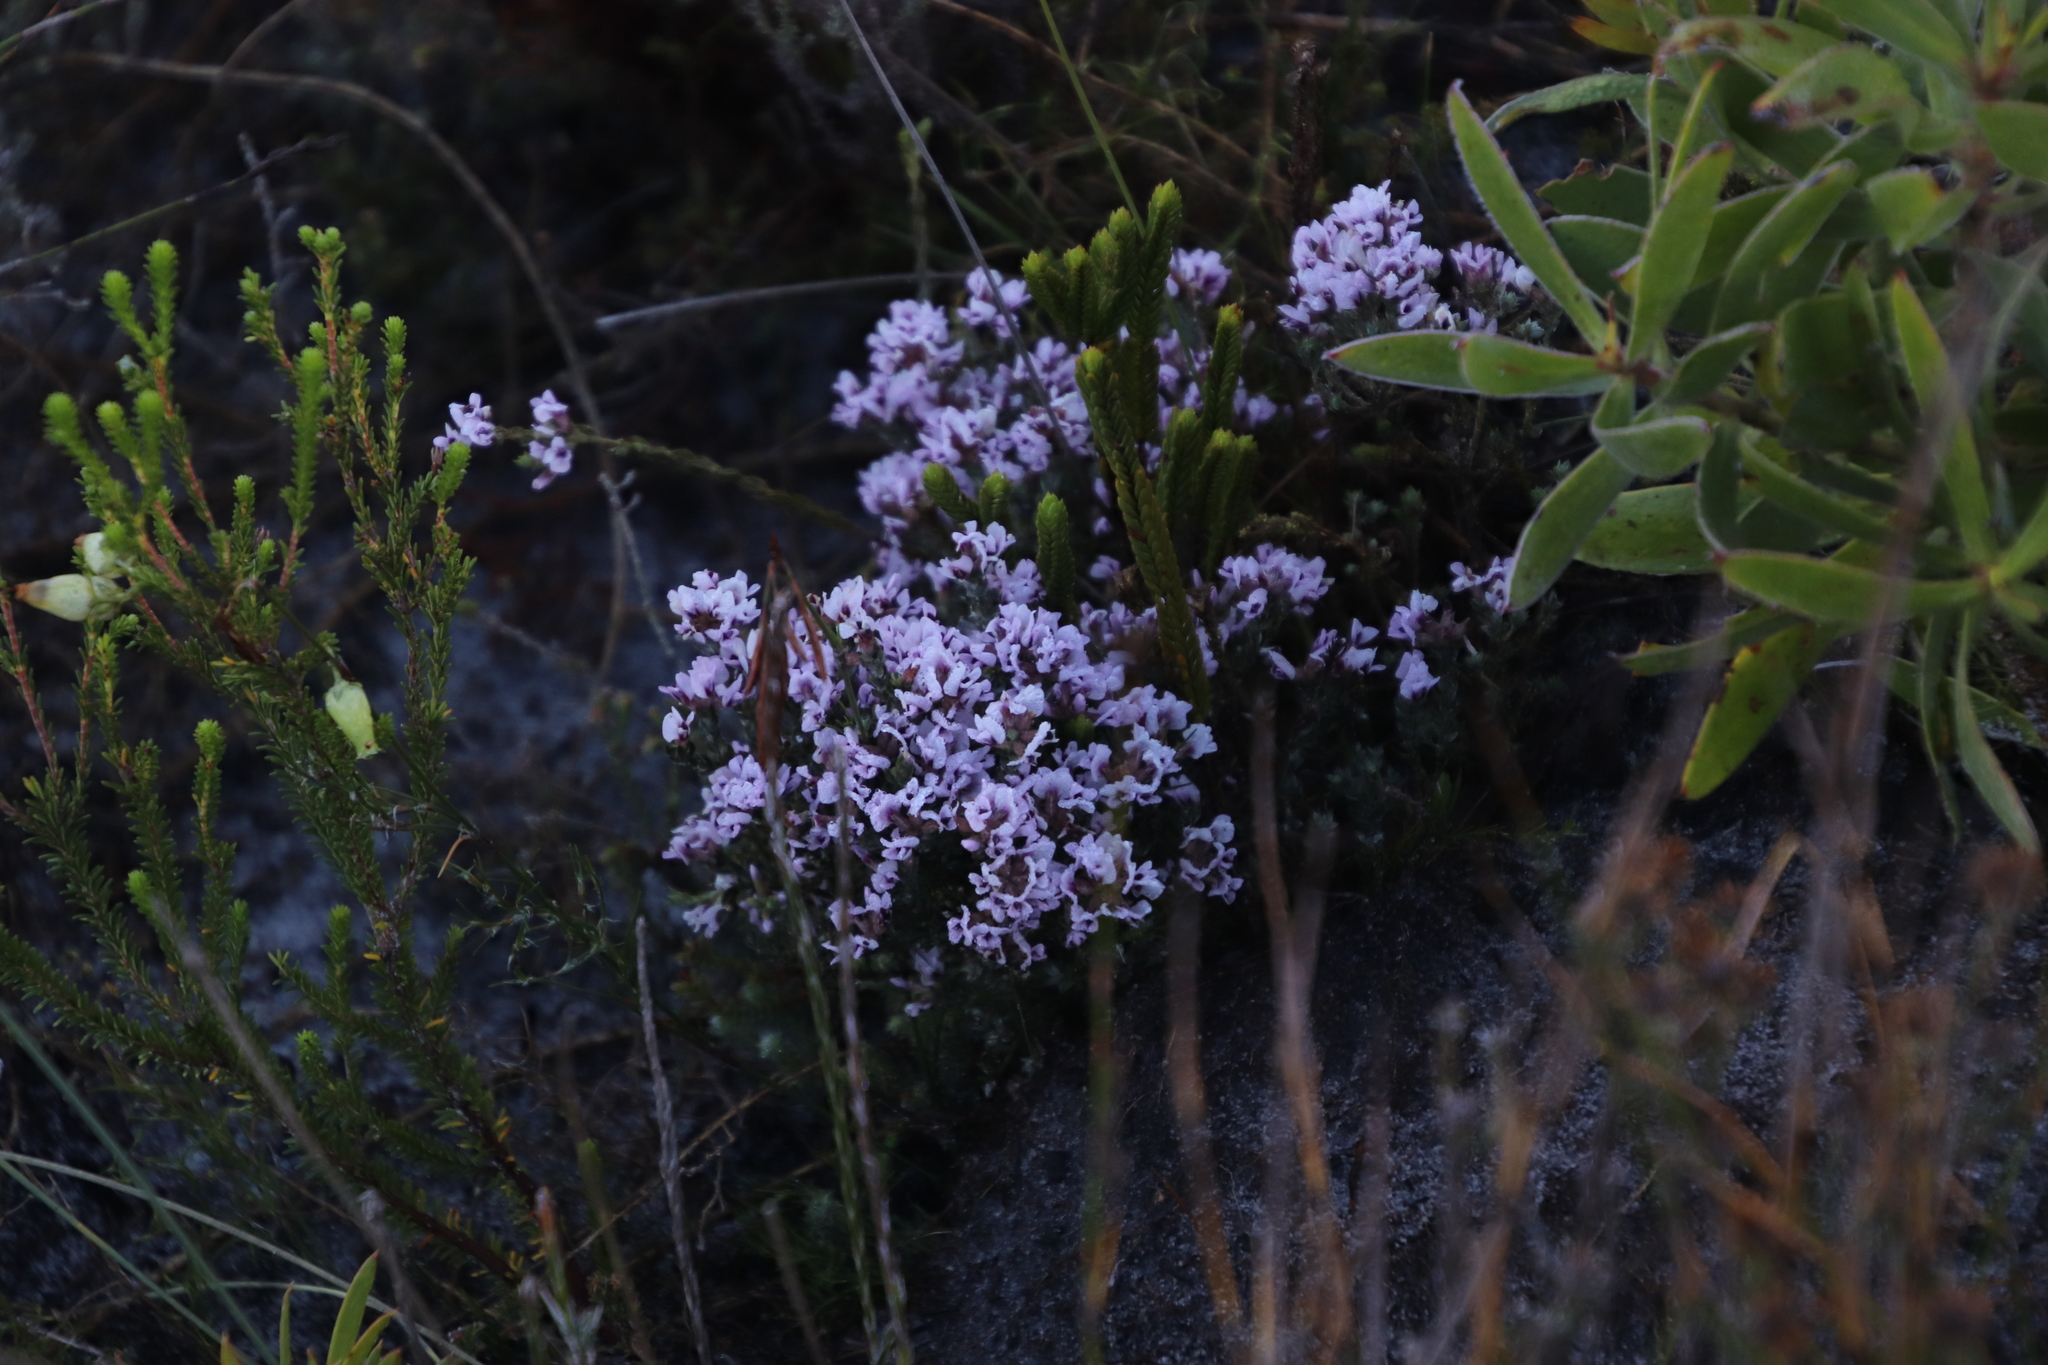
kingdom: Plantae
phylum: Tracheophyta
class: Magnoliopsida
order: Fabales
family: Fabaceae
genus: Amphithalea
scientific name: Amphithalea ericifolia
